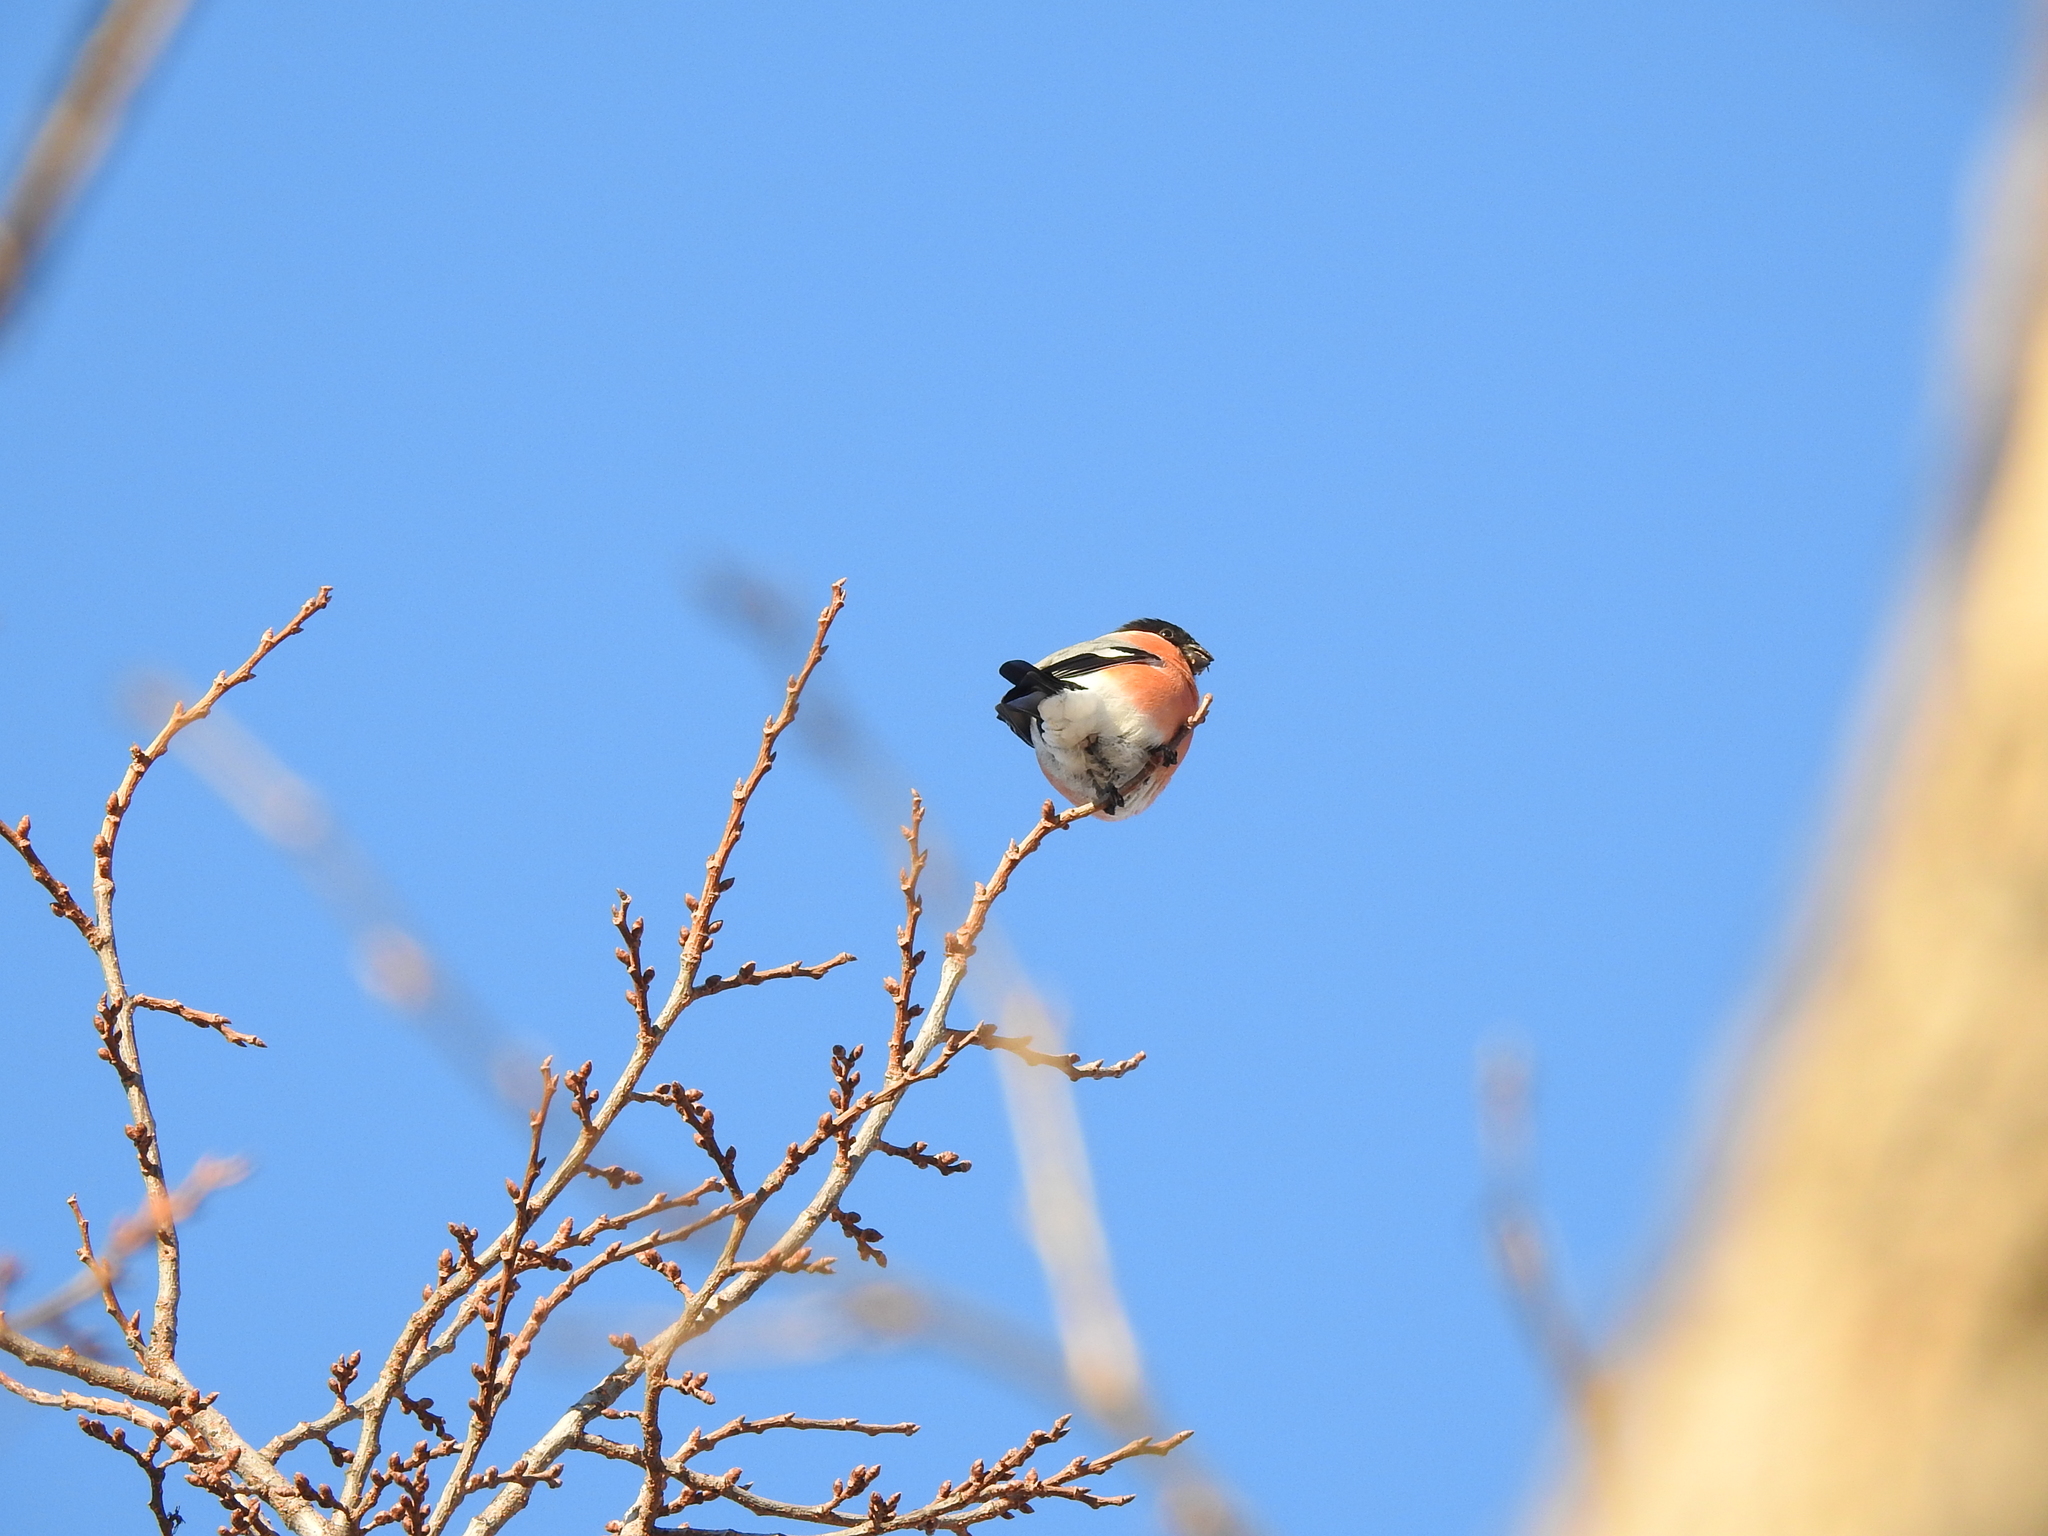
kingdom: Animalia
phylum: Chordata
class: Aves
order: Passeriformes
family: Fringillidae
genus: Pyrrhula
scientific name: Pyrrhula pyrrhula
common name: Eurasian bullfinch
